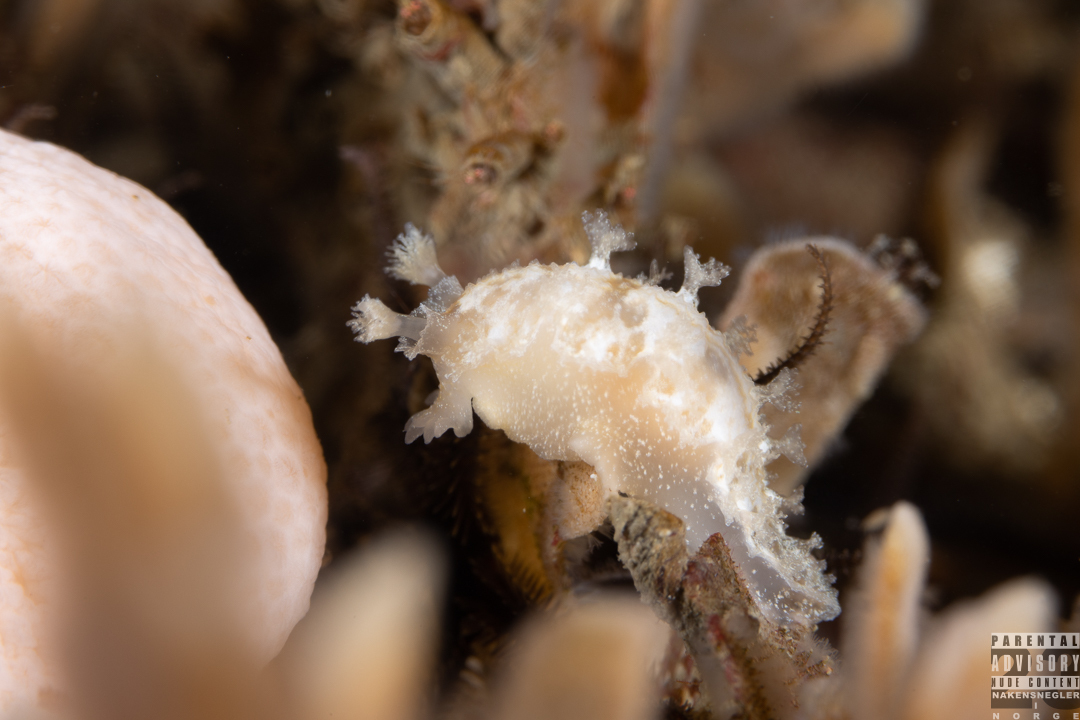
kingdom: Animalia
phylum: Mollusca
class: Gastropoda
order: Nudibranchia
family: Tritoniidae
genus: Tritonia
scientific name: Tritonia hombergii
